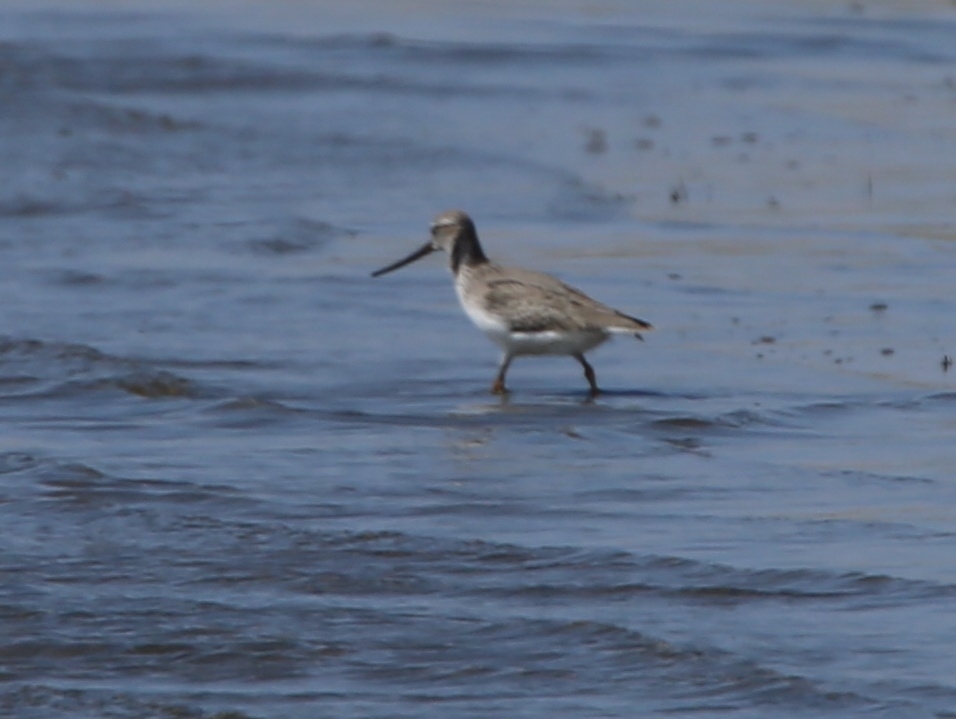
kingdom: Animalia
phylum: Chordata
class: Aves
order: Charadriiformes
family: Scolopacidae
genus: Xenus
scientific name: Xenus cinereus
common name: Terek sandpiper
